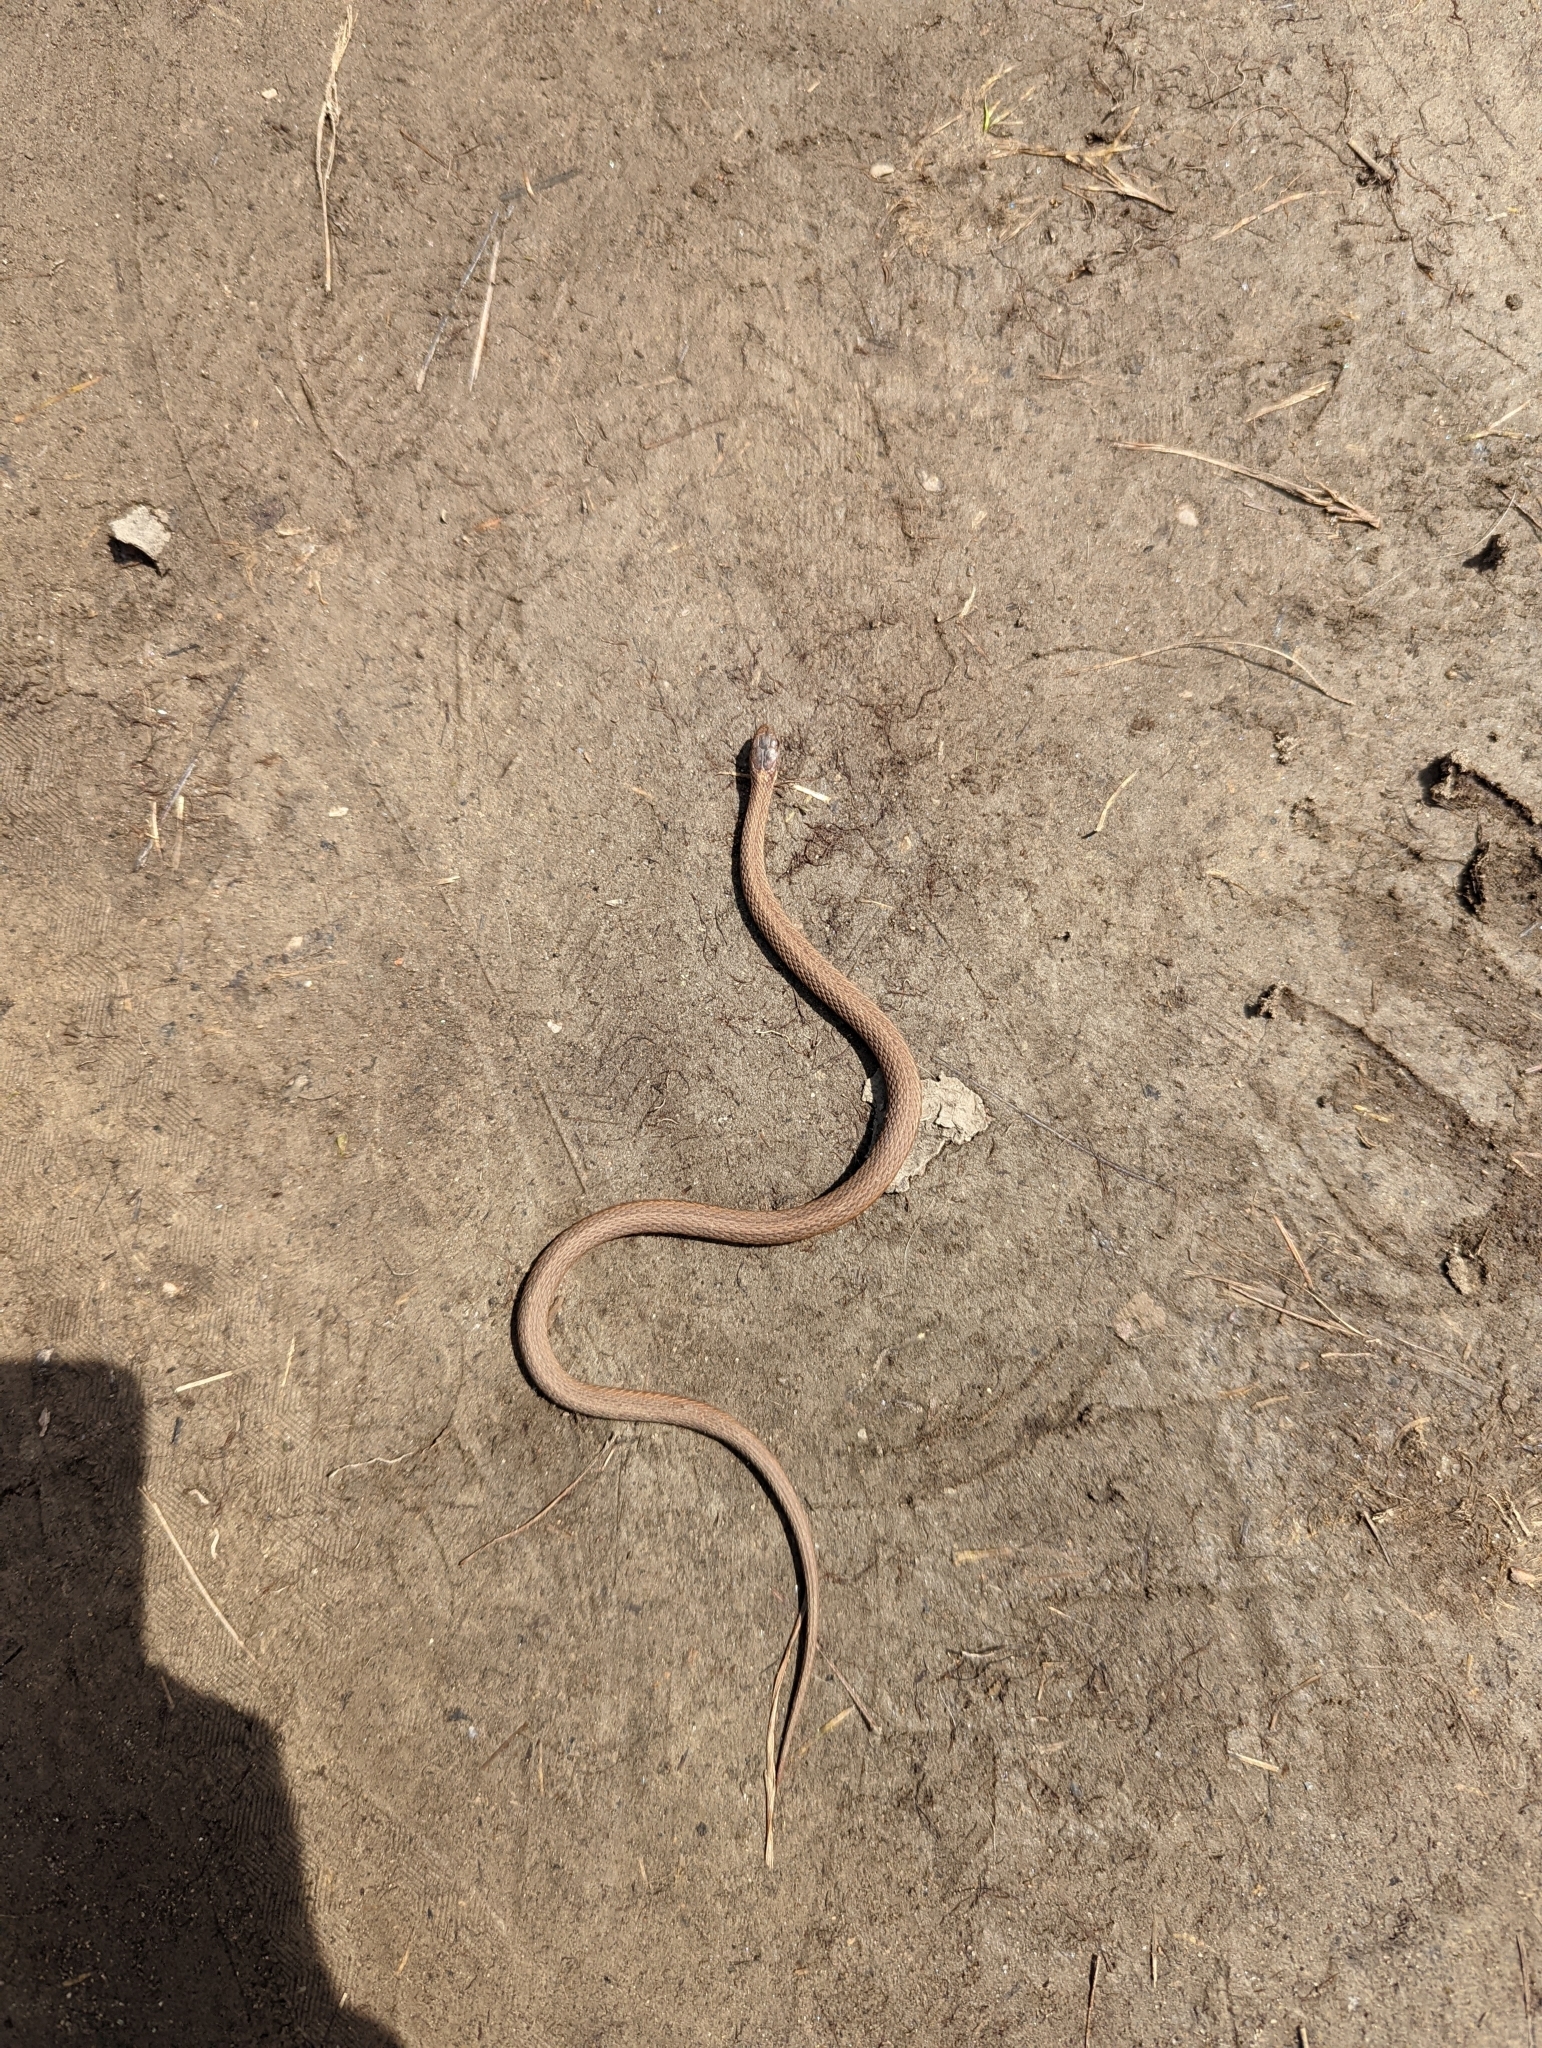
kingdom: Animalia
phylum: Chordata
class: Squamata
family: Colubridae
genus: Storeria
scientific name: Storeria occipitomaculata
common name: Redbelly snake
